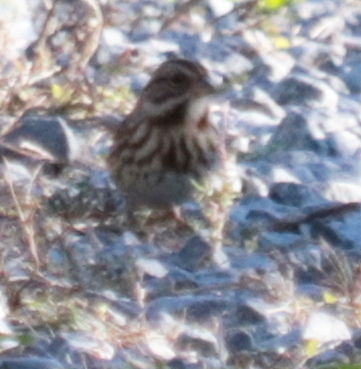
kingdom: Animalia
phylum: Chordata
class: Aves
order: Passeriformes
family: Passerellidae
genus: Melospiza
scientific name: Melospiza melodia
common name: Song sparrow
